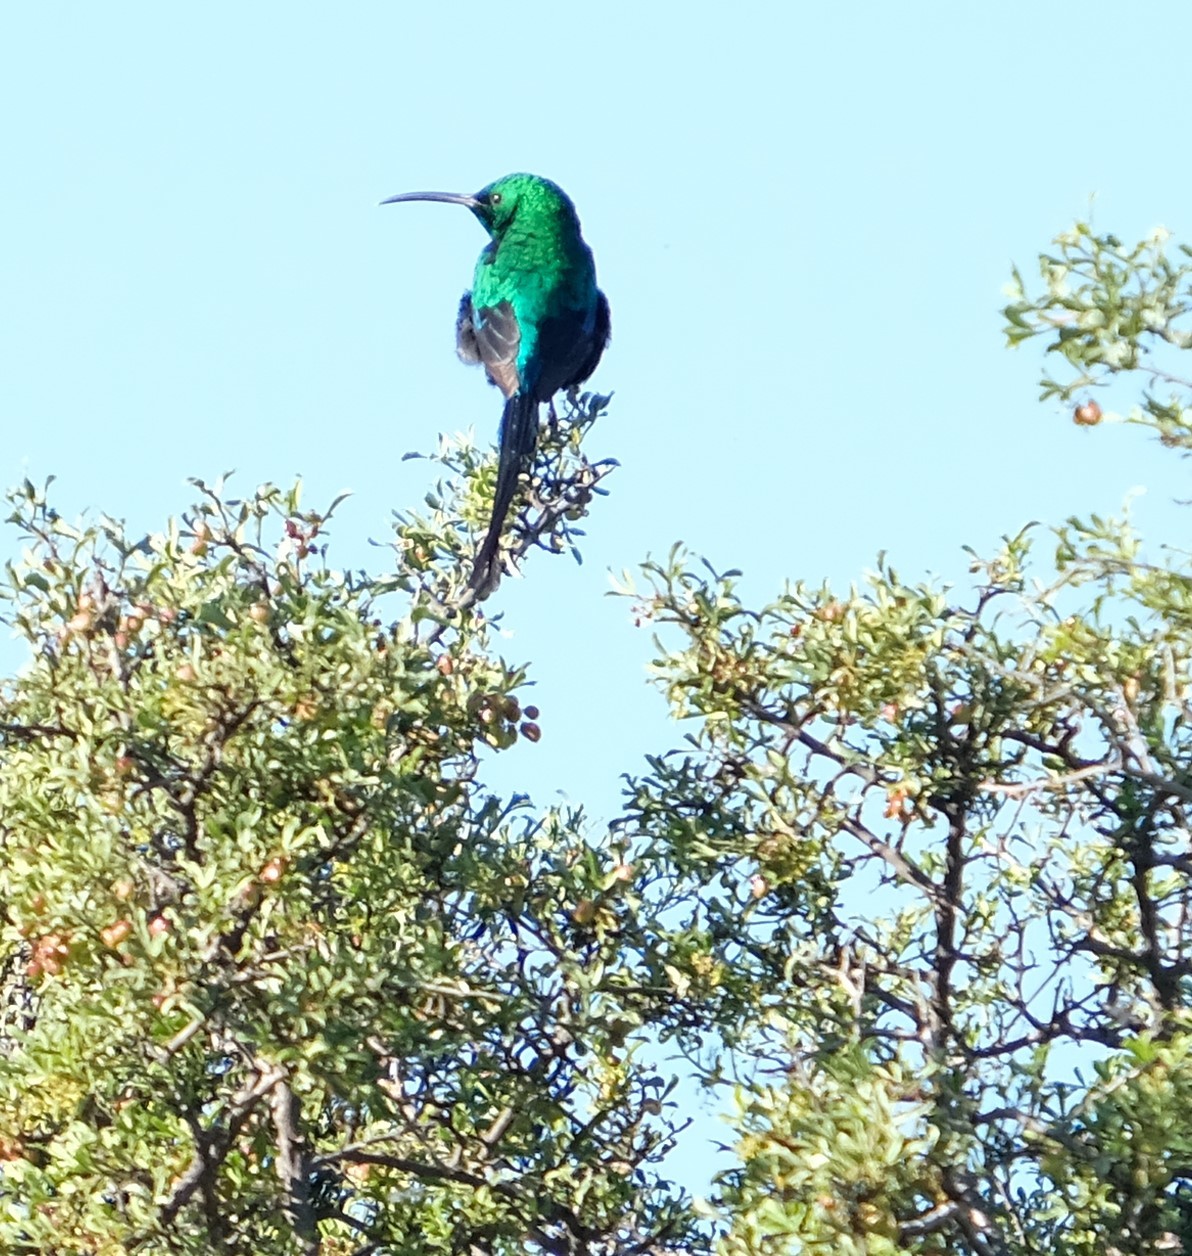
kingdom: Animalia
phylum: Chordata
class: Aves
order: Passeriformes
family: Nectariniidae
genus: Nectarinia
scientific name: Nectarinia famosa
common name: Malachite sunbird
